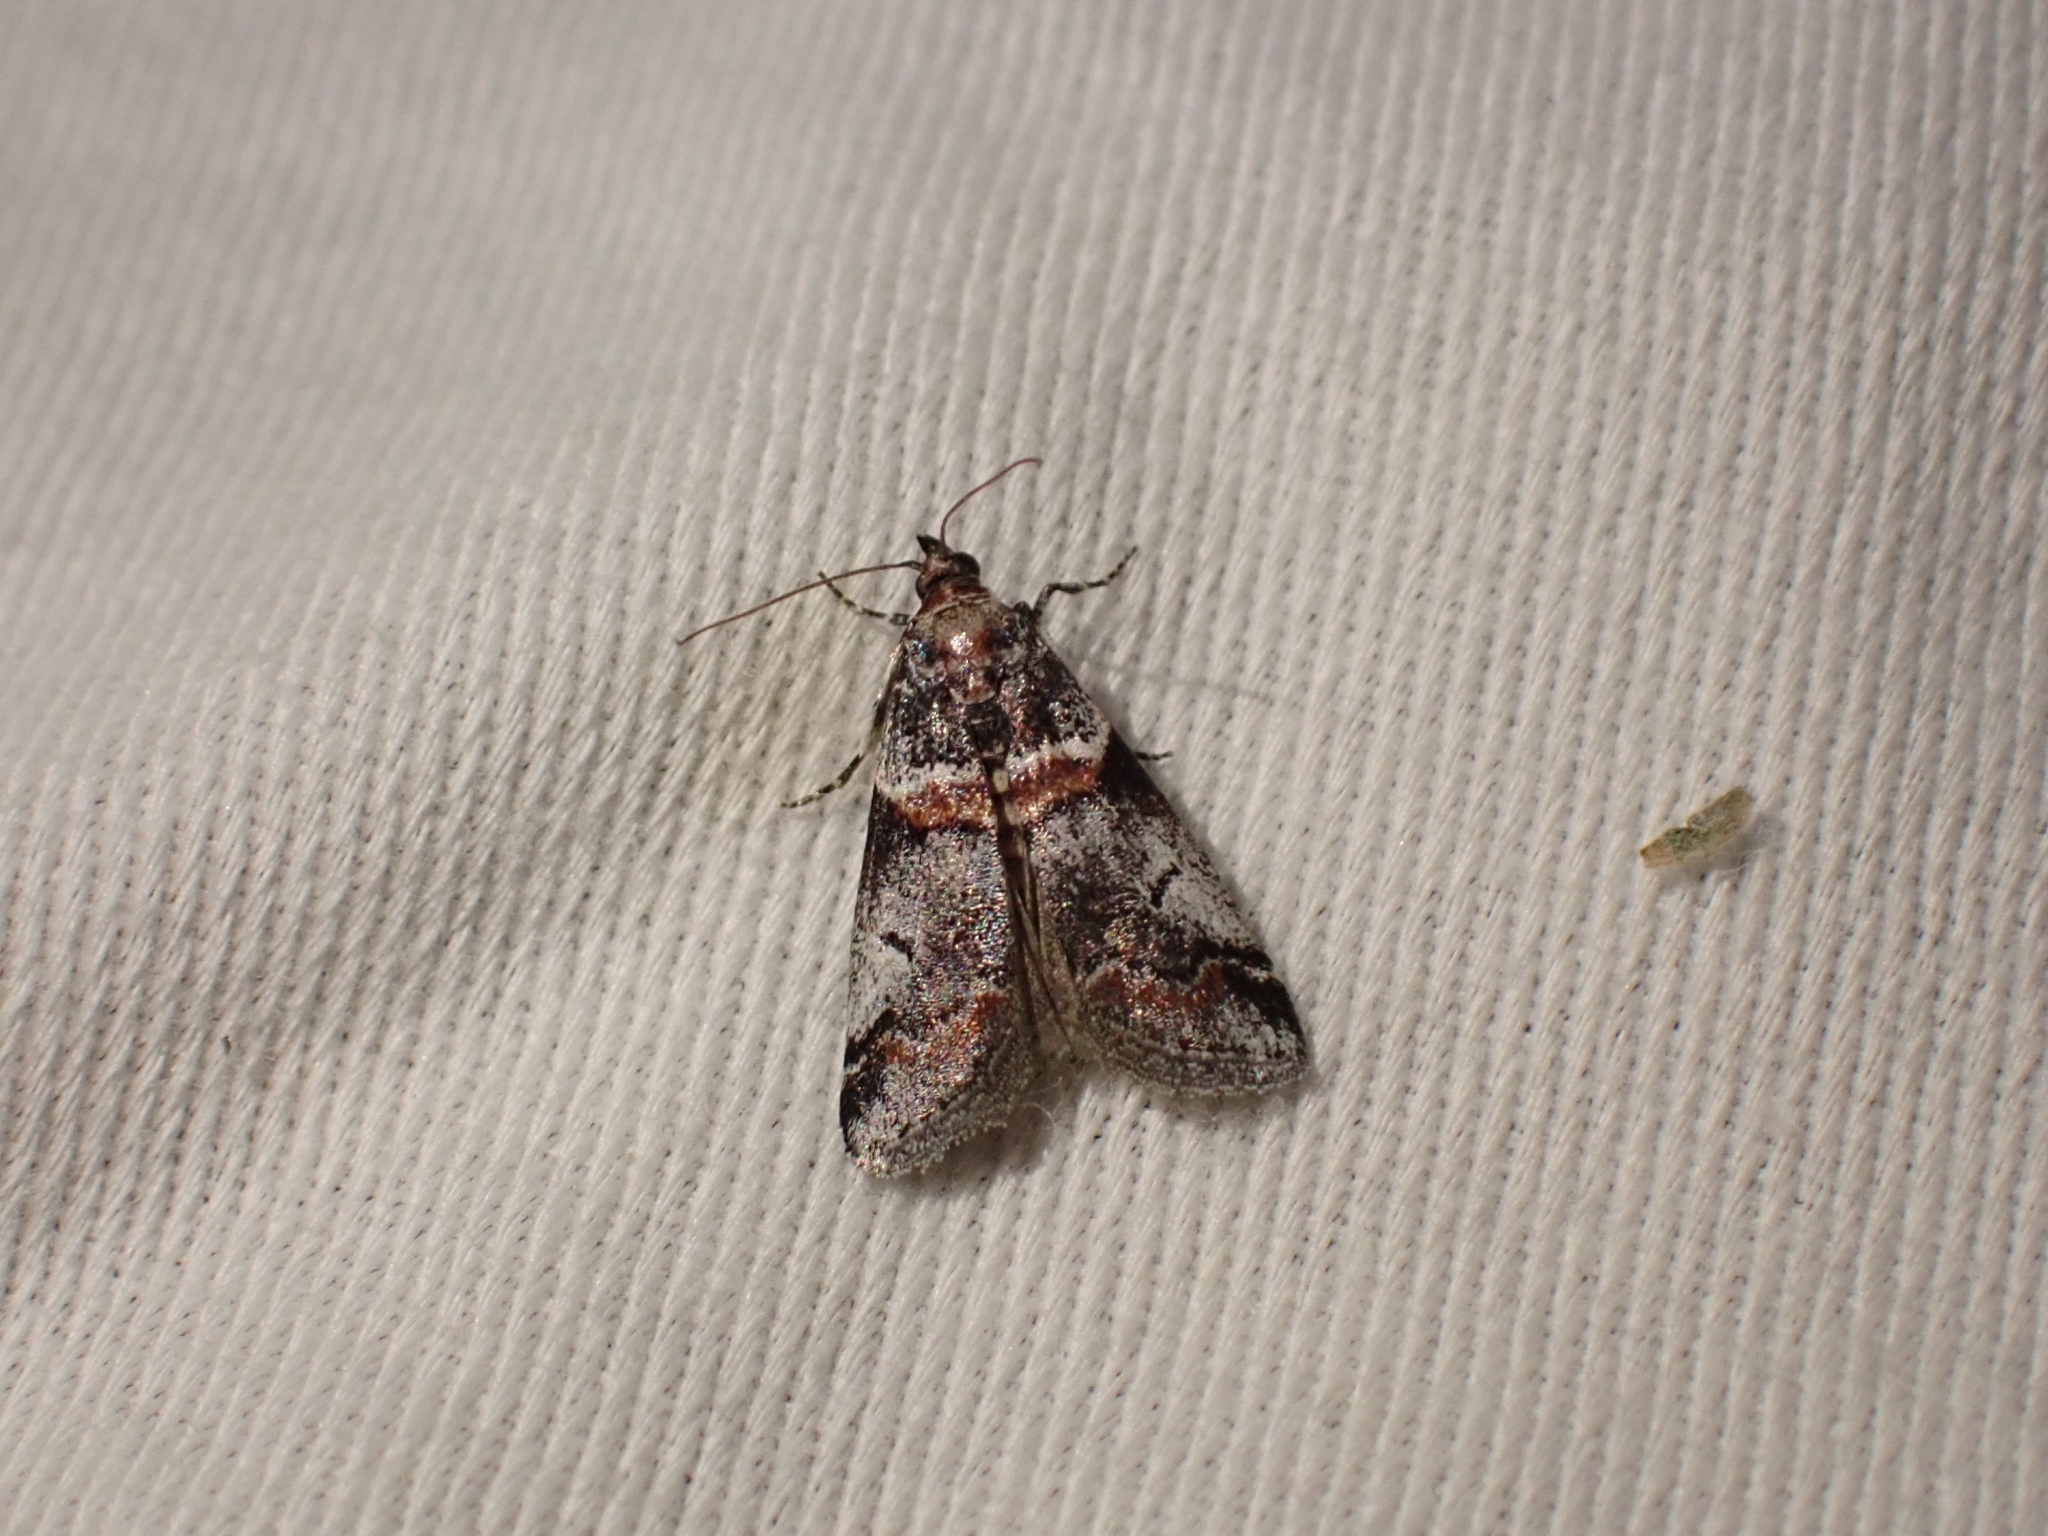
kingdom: Animalia
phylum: Arthropoda
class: Insecta
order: Lepidoptera
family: Pyralidae
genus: Acrobasis
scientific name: Acrobasis tricolorella
